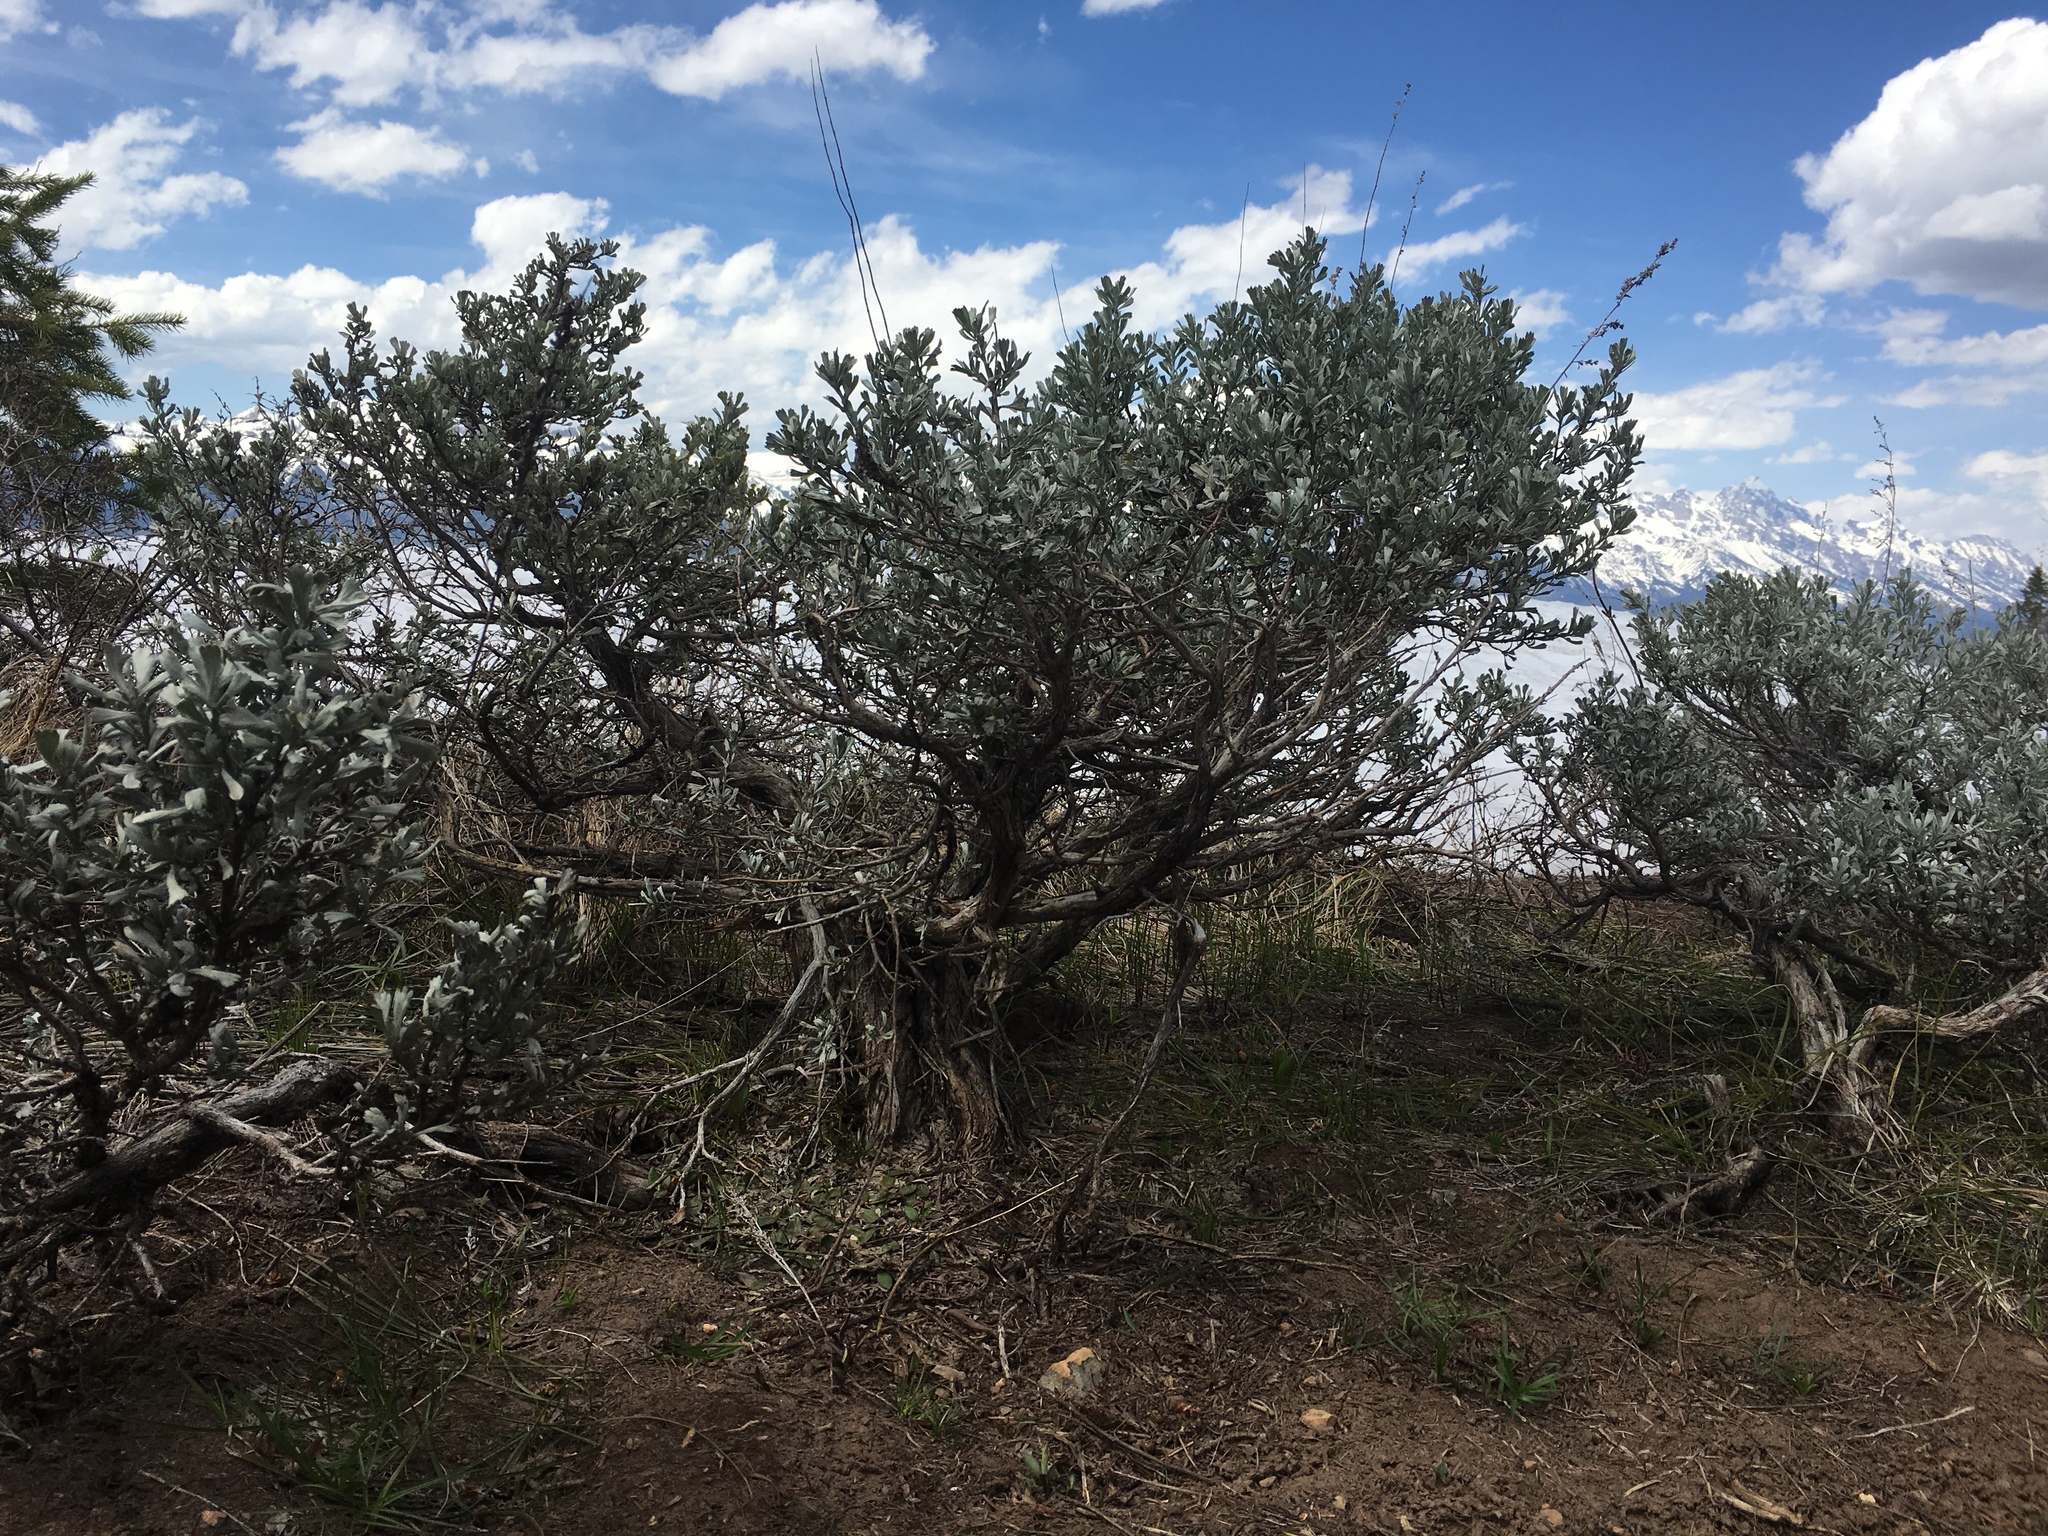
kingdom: Plantae
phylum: Tracheophyta
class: Magnoliopsida
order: Asterales
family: Asteraceae
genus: Artemisia
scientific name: Artemisia tridentata
